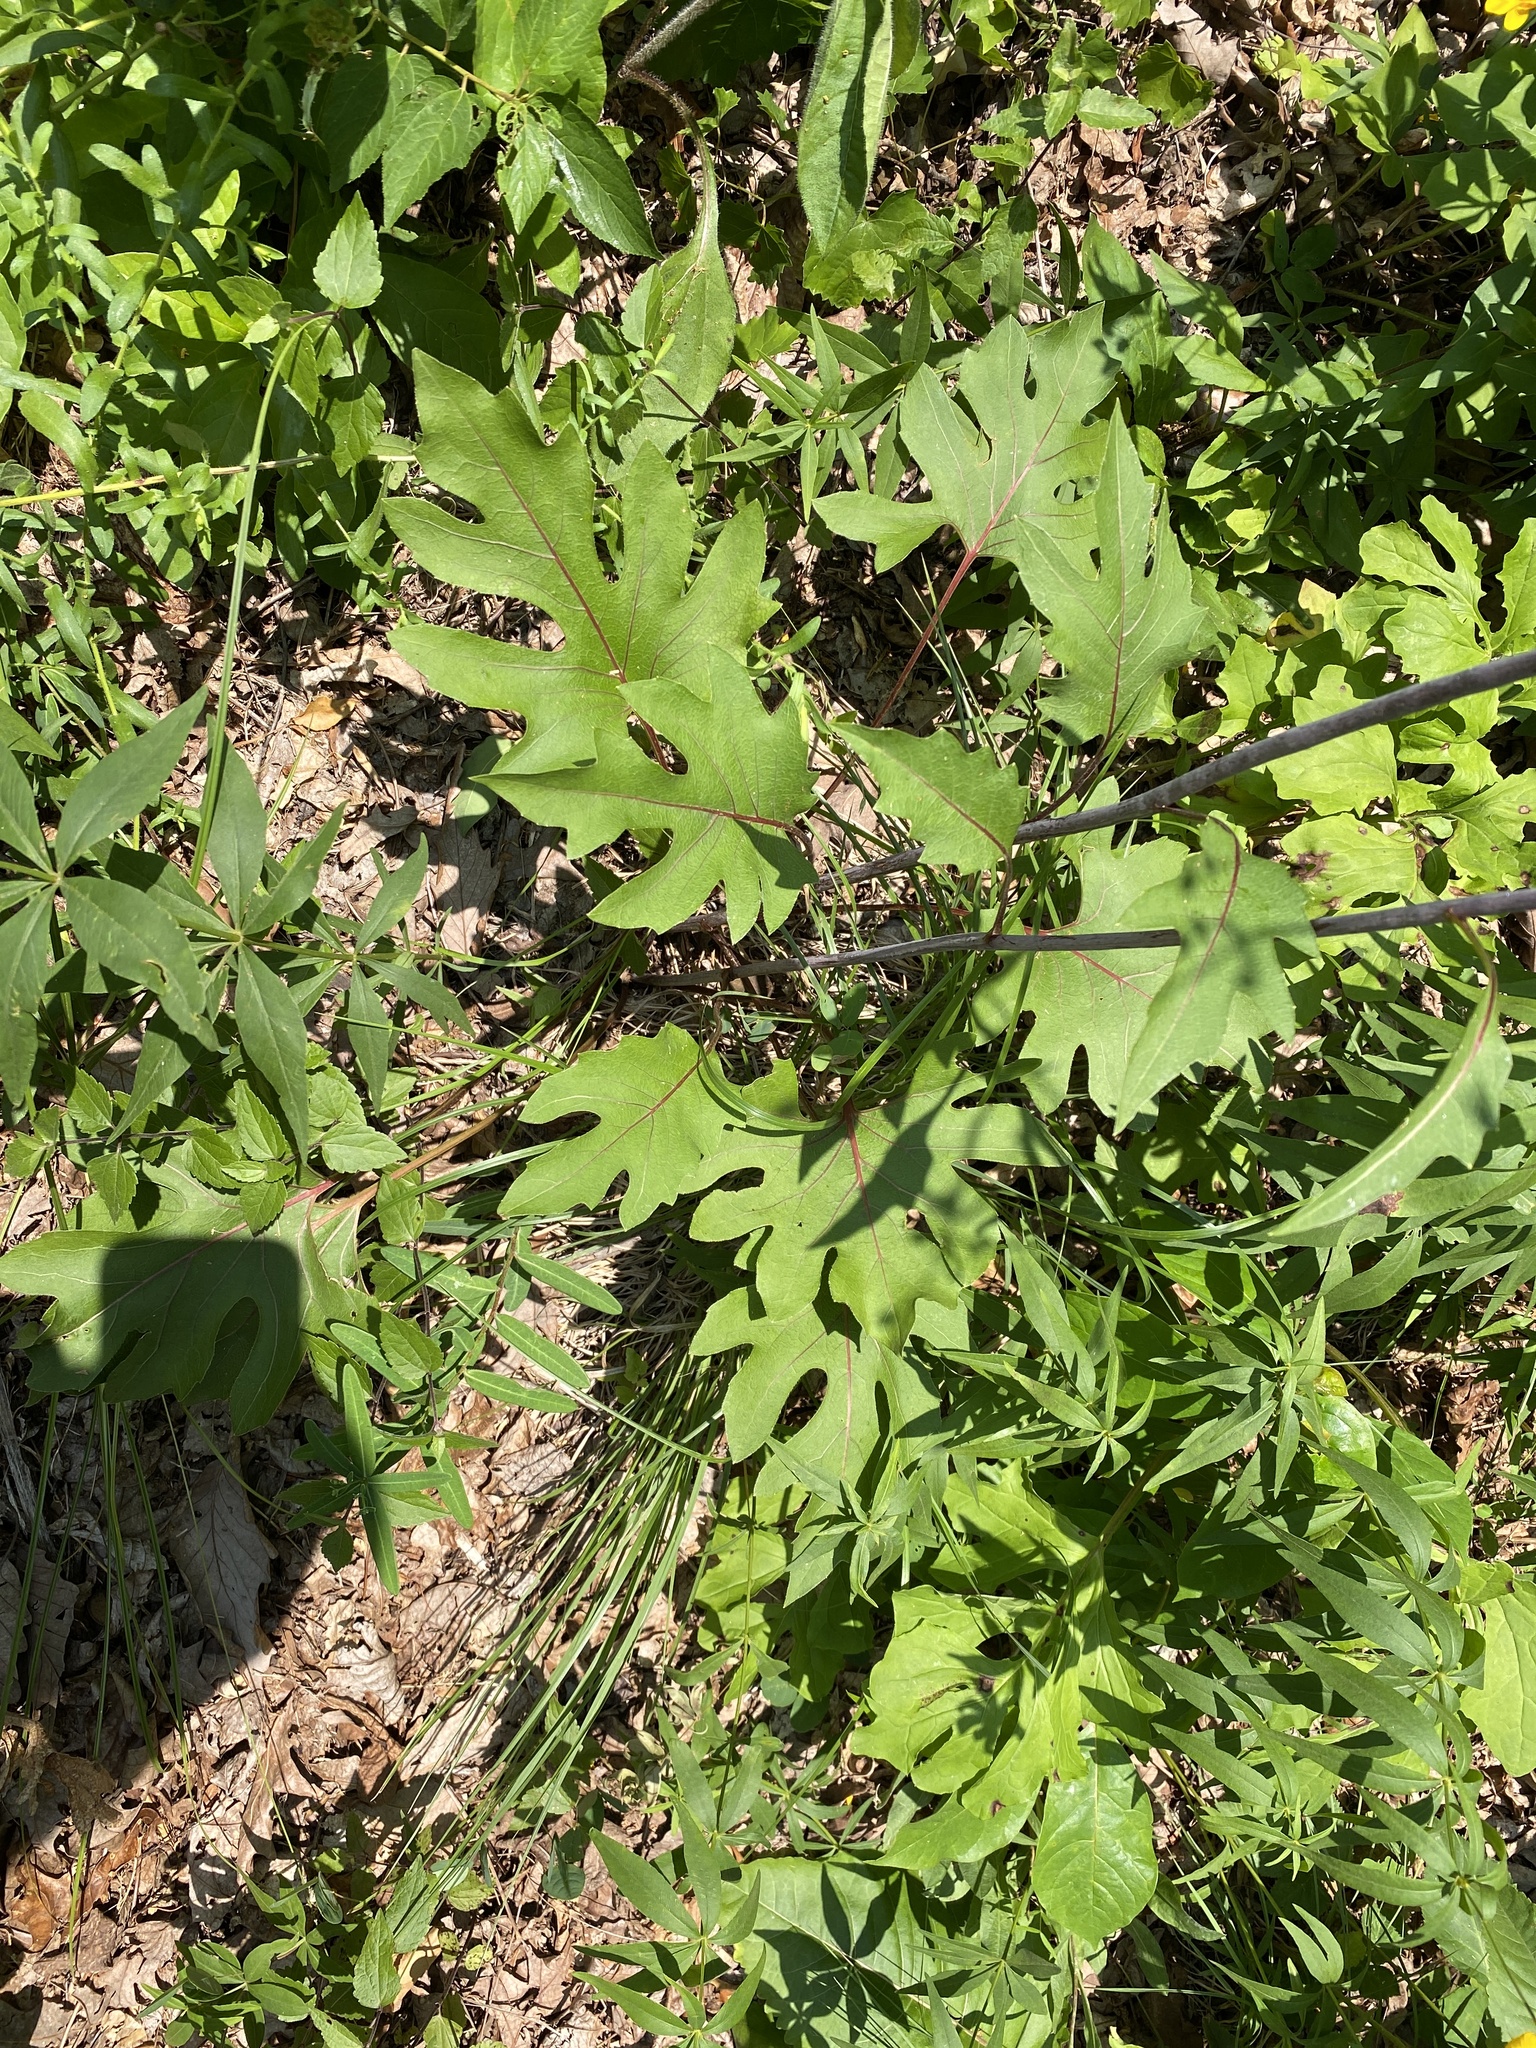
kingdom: Plantae
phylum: Tracheophyta
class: Magnoliopsida
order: Asterales
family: Asteraceae
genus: Silphium
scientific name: Silphium compositum
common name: Lesser basal-leaf rosinweed
